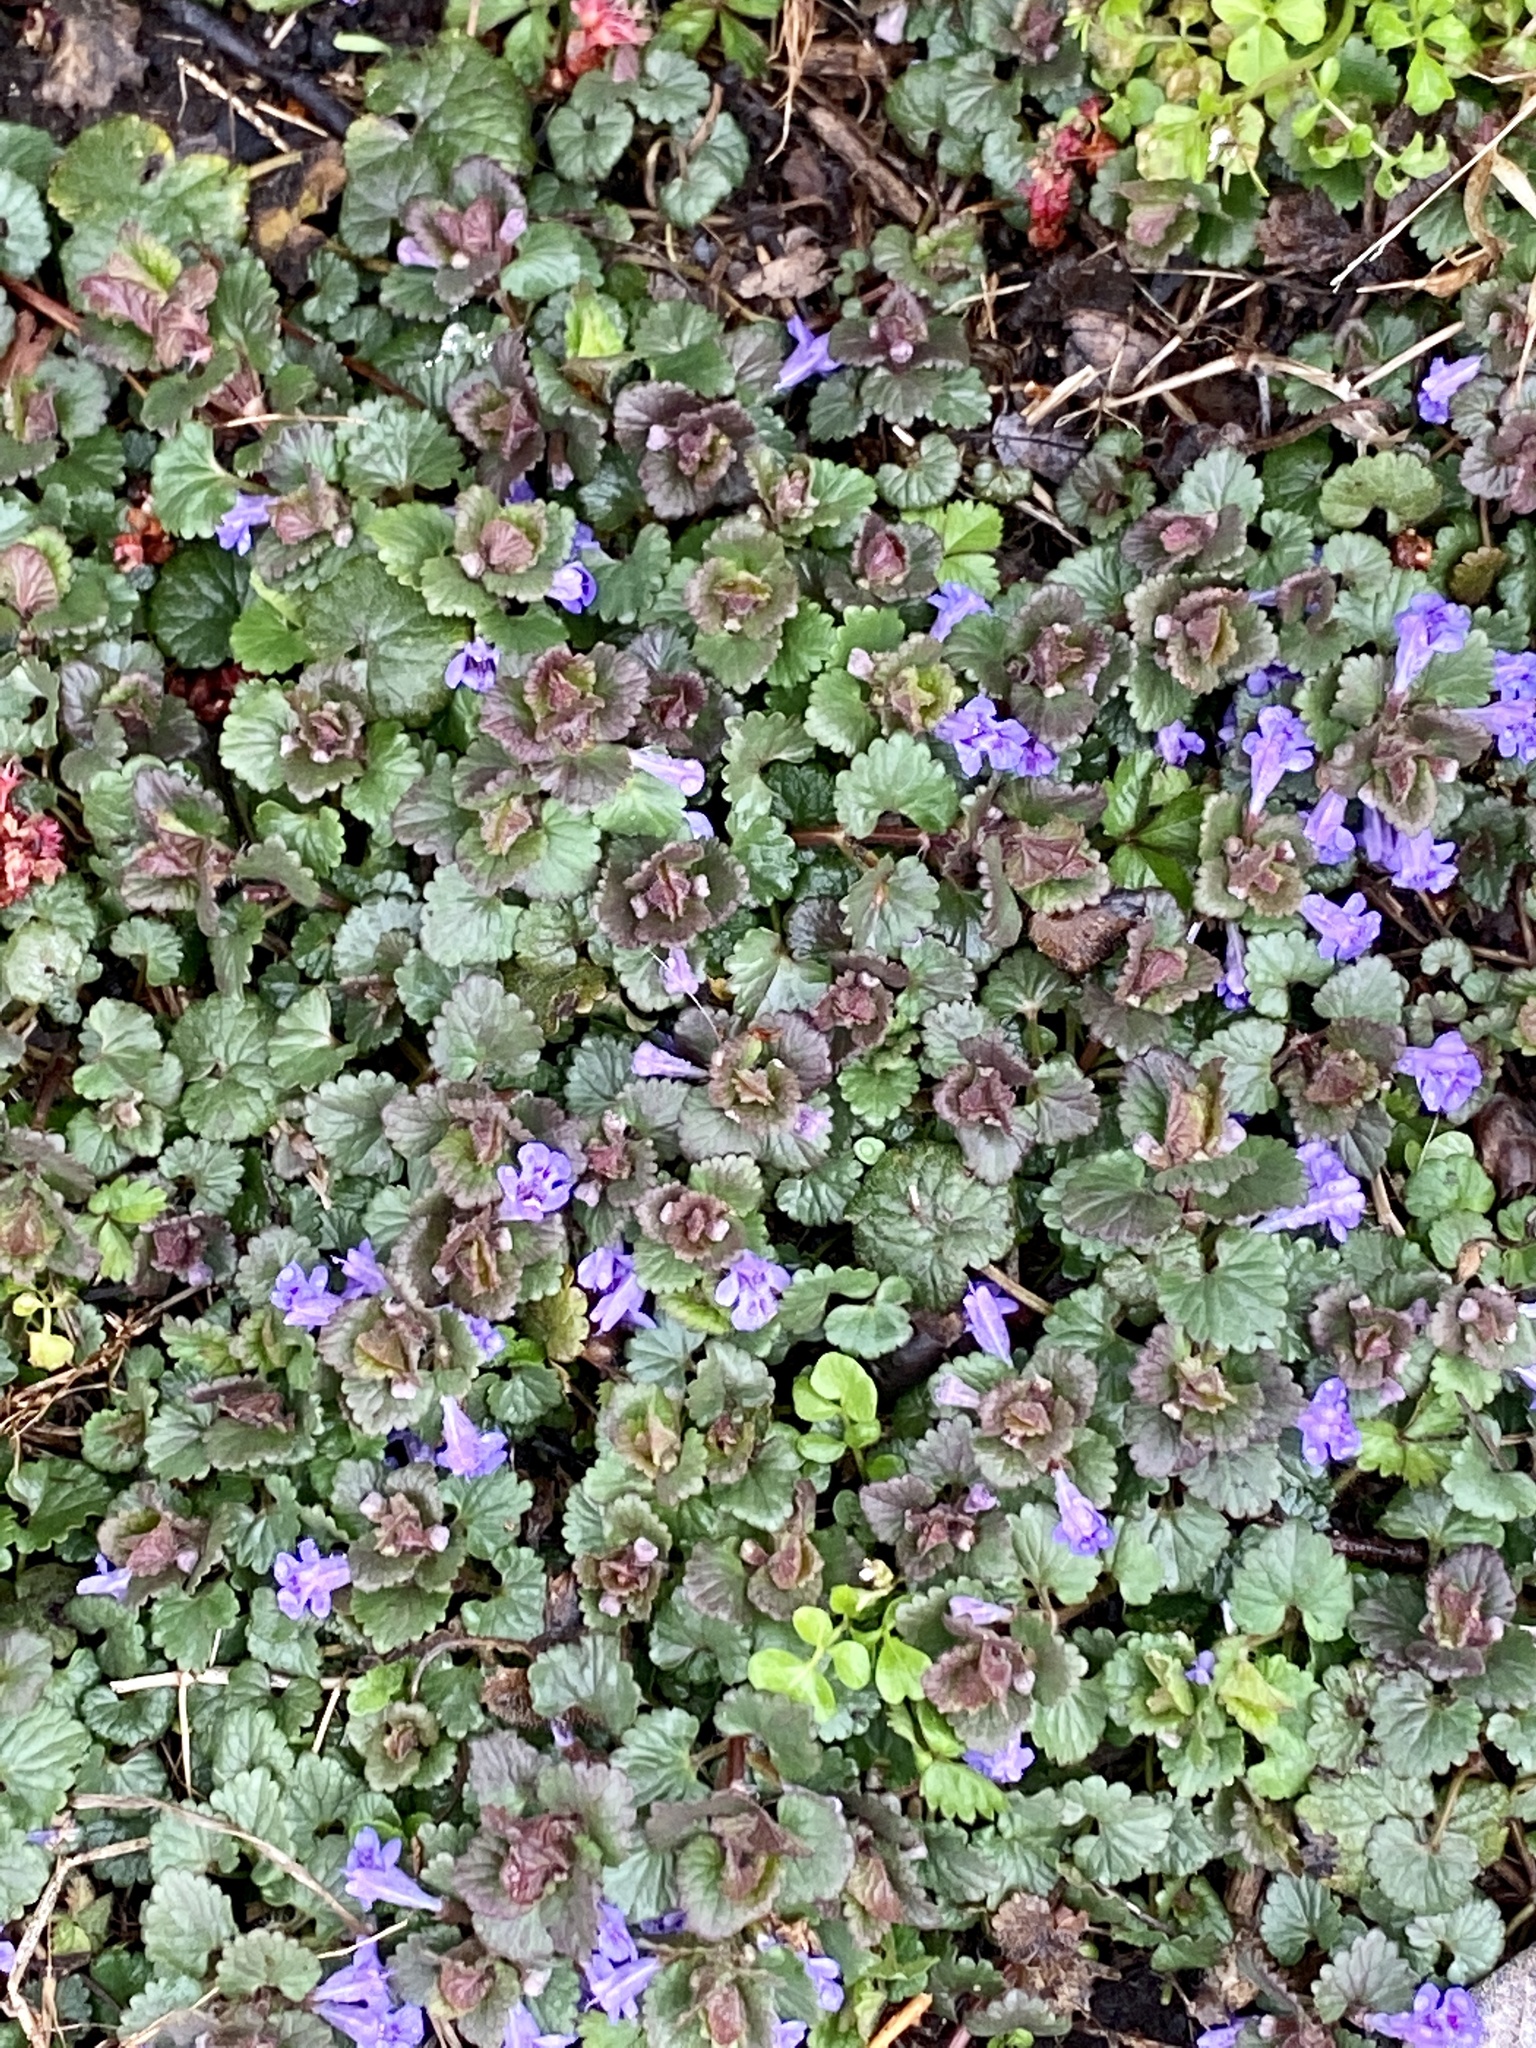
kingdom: Plantae
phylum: Tracheophyta
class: Magnoliopsida
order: Lamiales
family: Lamiaceae
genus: Glechoma
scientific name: Glechoma hederacea
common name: Ground ivy
